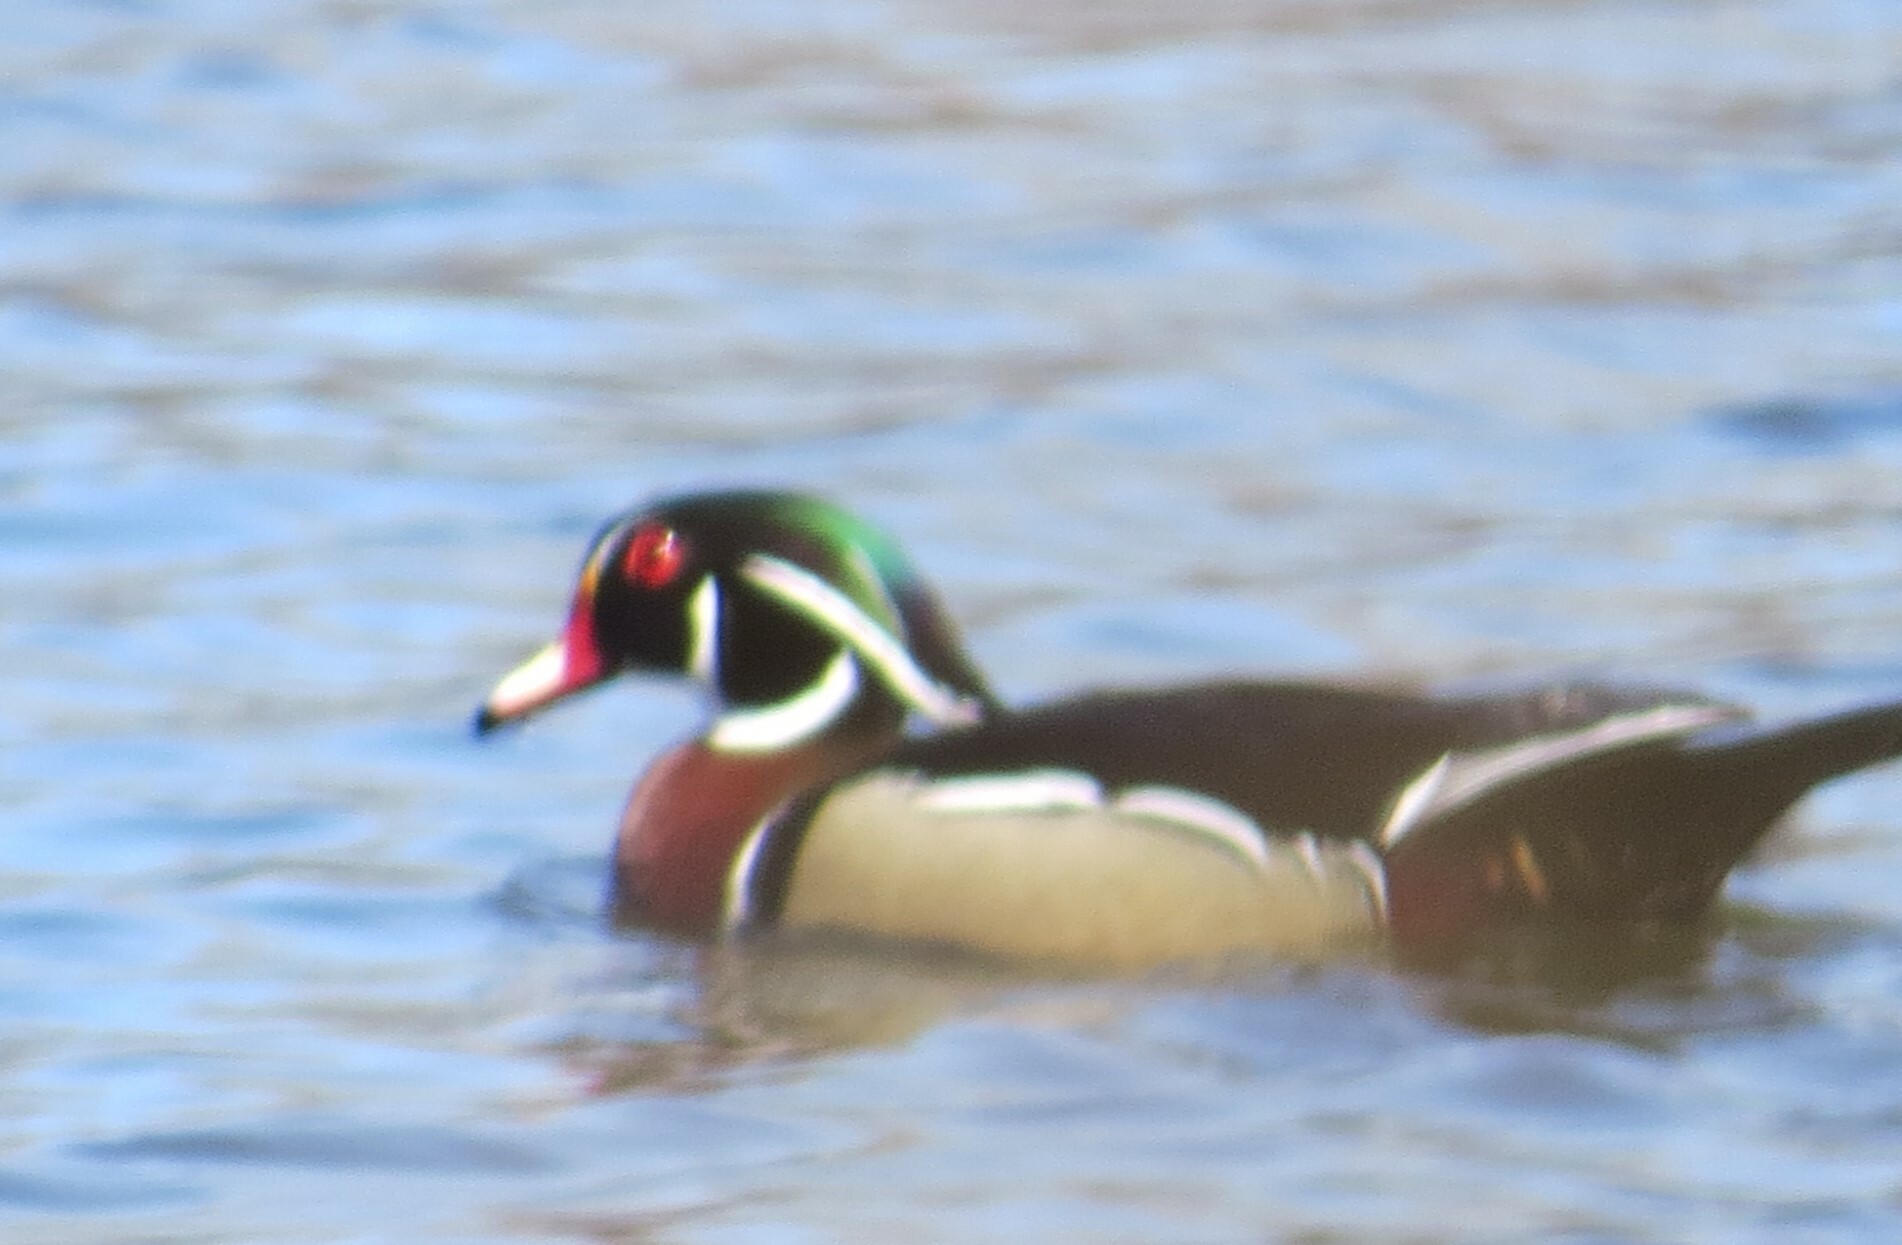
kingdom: Animalia
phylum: Chordata
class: Aves
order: Anseriformes
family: Anatidae
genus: Aix
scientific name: Aix sponsa
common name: Wood duck
